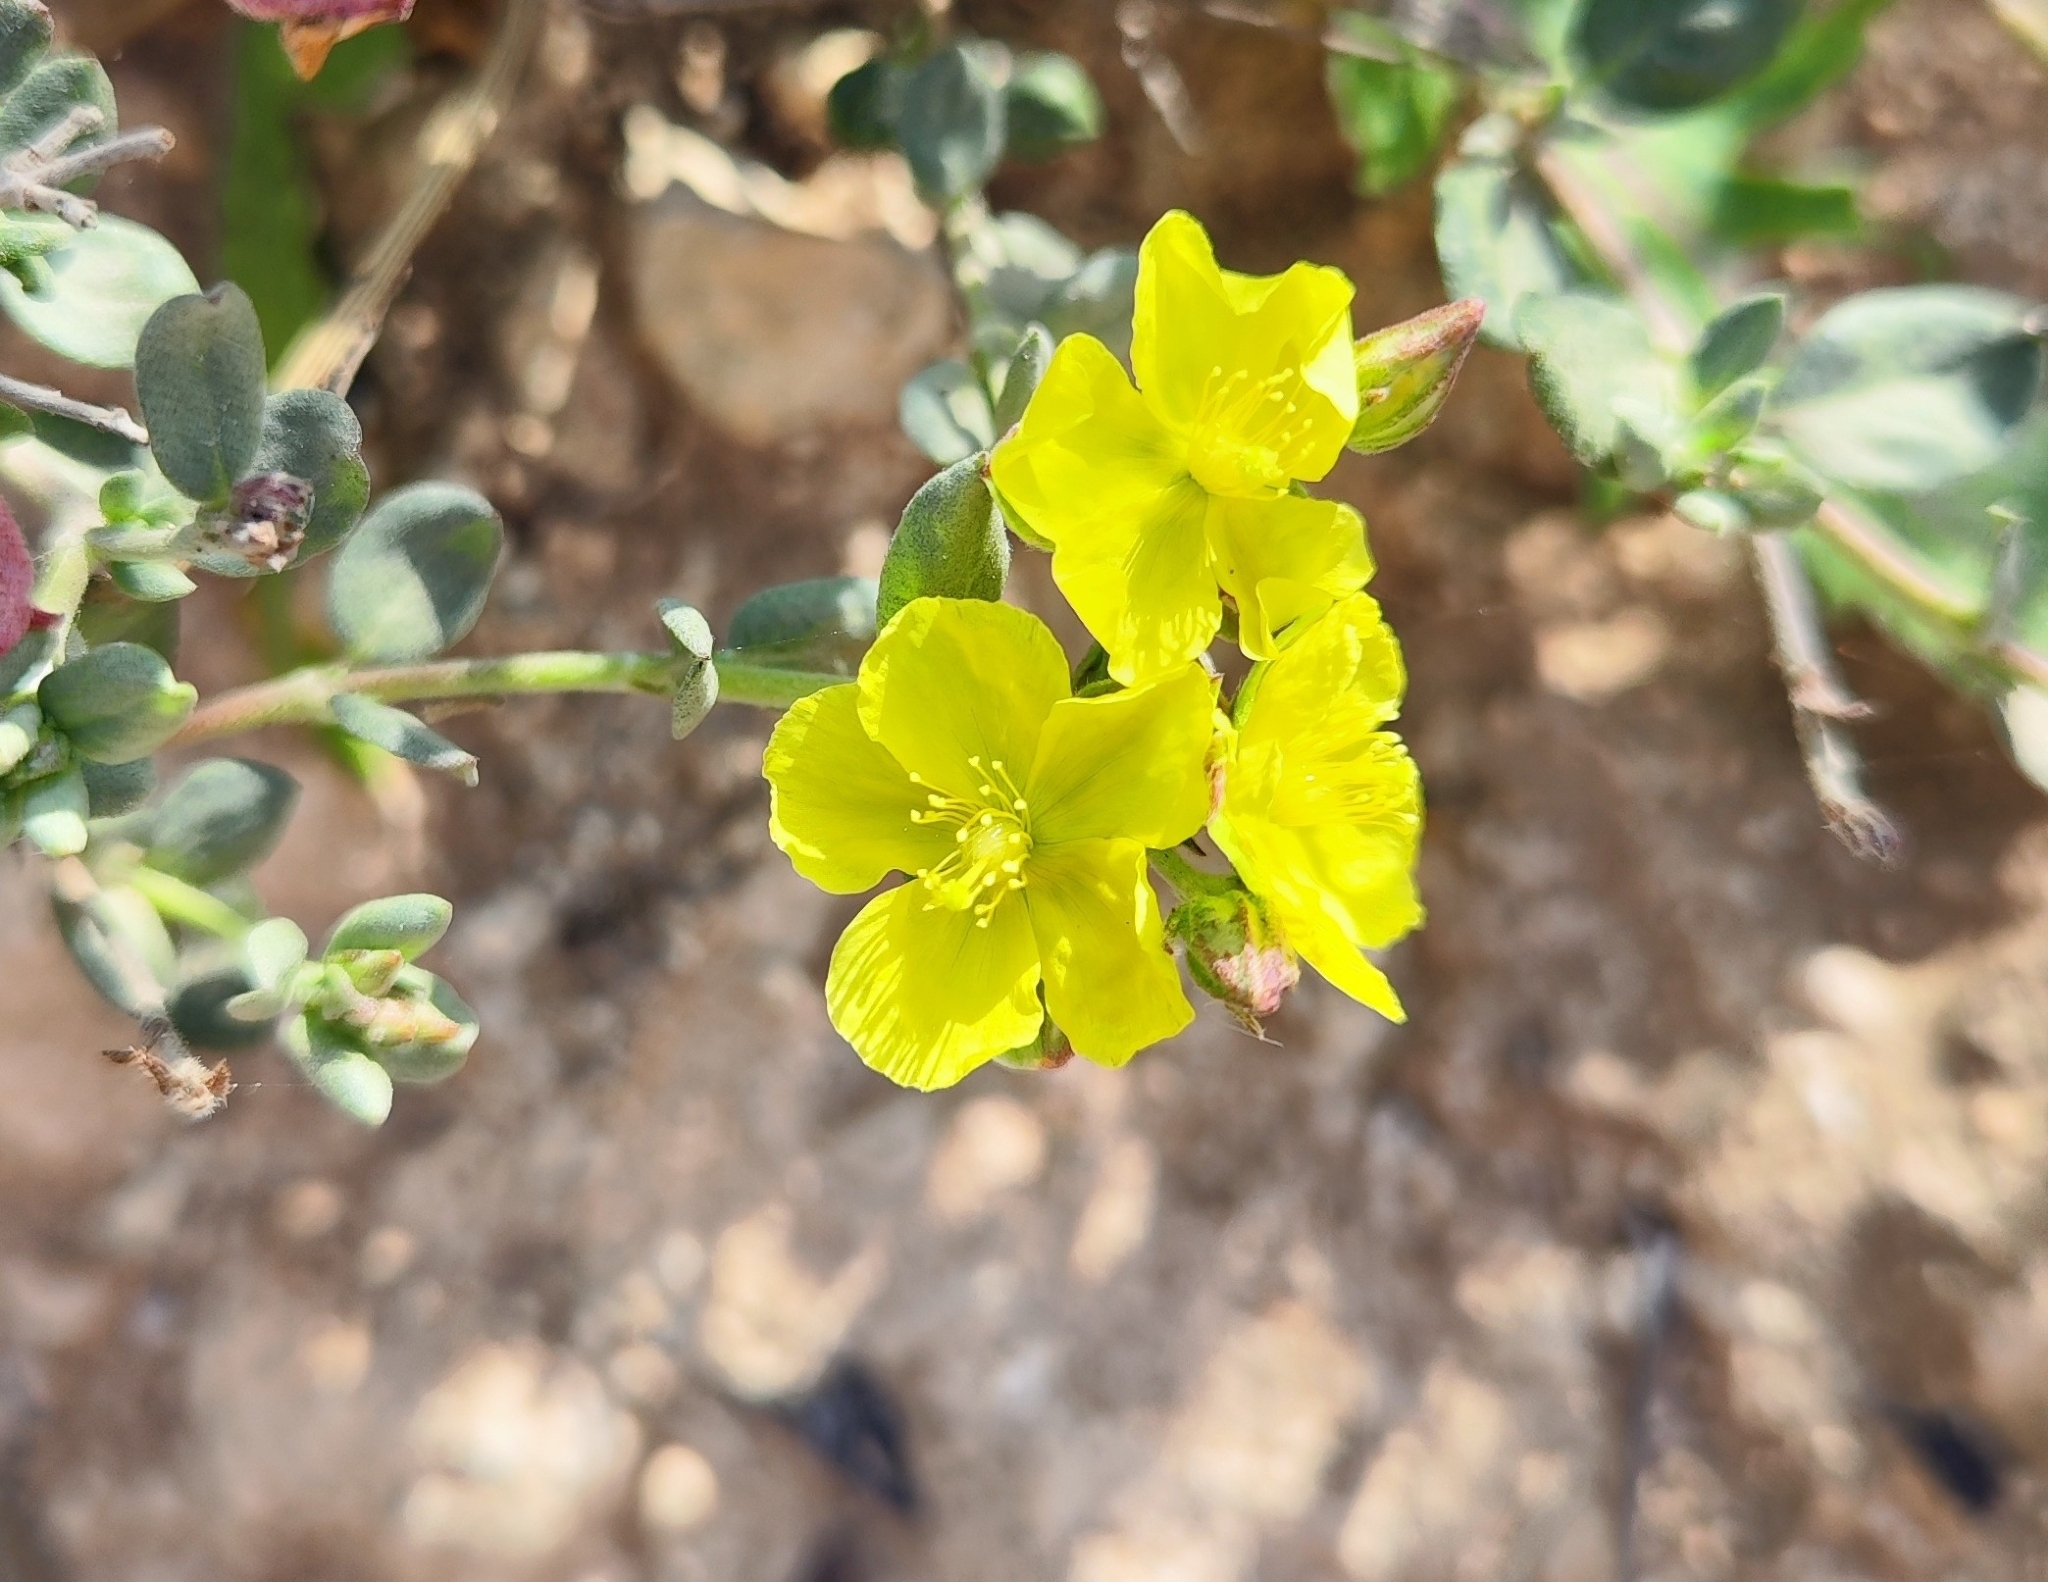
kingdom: Plantae
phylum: Tracheophyta
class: Magnoliopsida
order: Malvales
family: Cistaceae
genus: Helianthemum
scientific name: Helianthemum canariense
